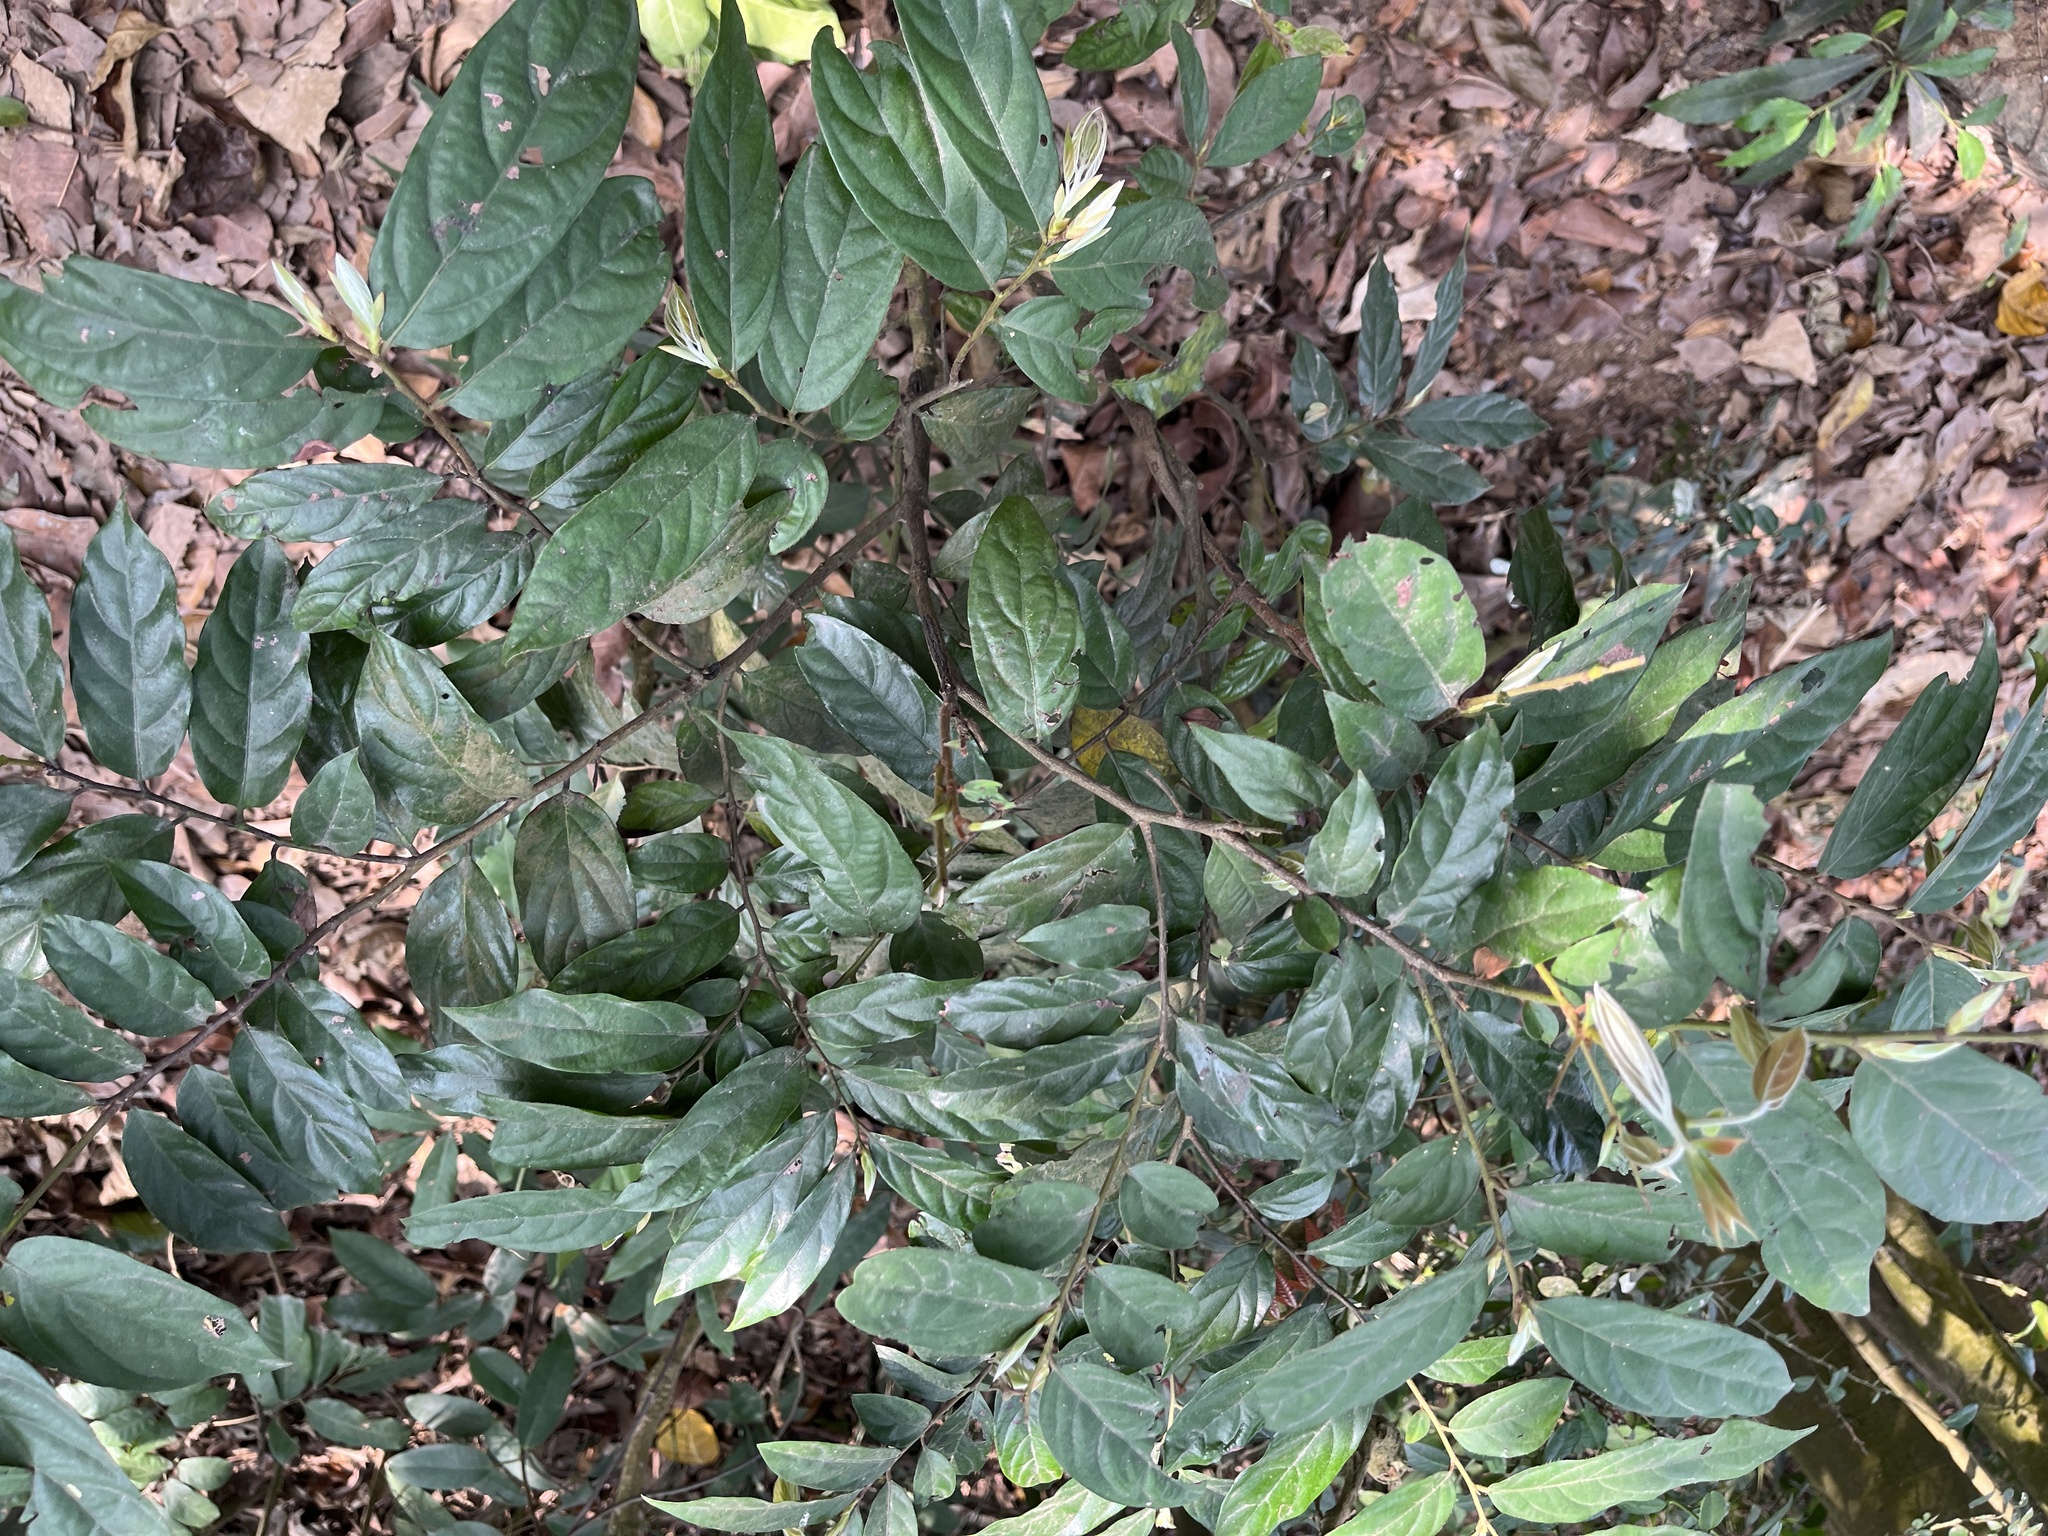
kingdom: Plantae
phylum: Tracheophyta
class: Magnoliopsida
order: Ericales
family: Ebenaceae
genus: Diospyros
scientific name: Diospyros eriantha
